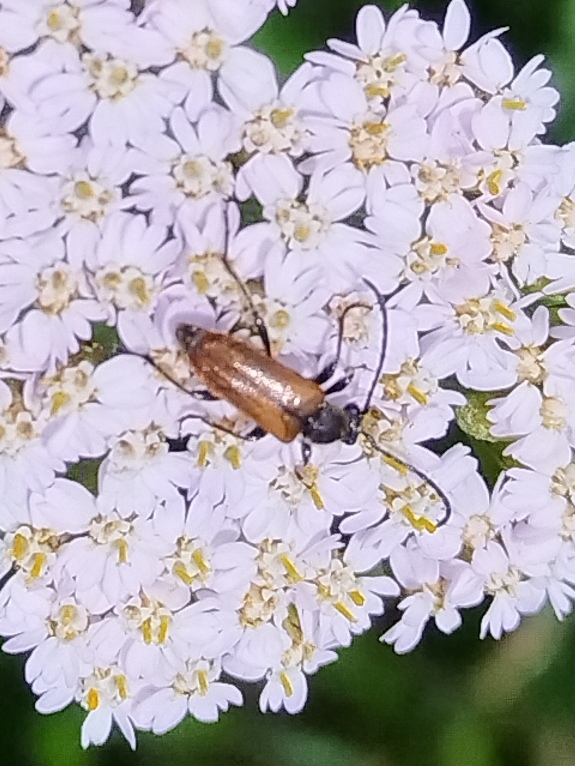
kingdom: Animalia
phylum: Arthropoda
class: Insecta
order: Coleoptera
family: Cerambycidae
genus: Pseudovadonia
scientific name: Pseudovadonia livida
